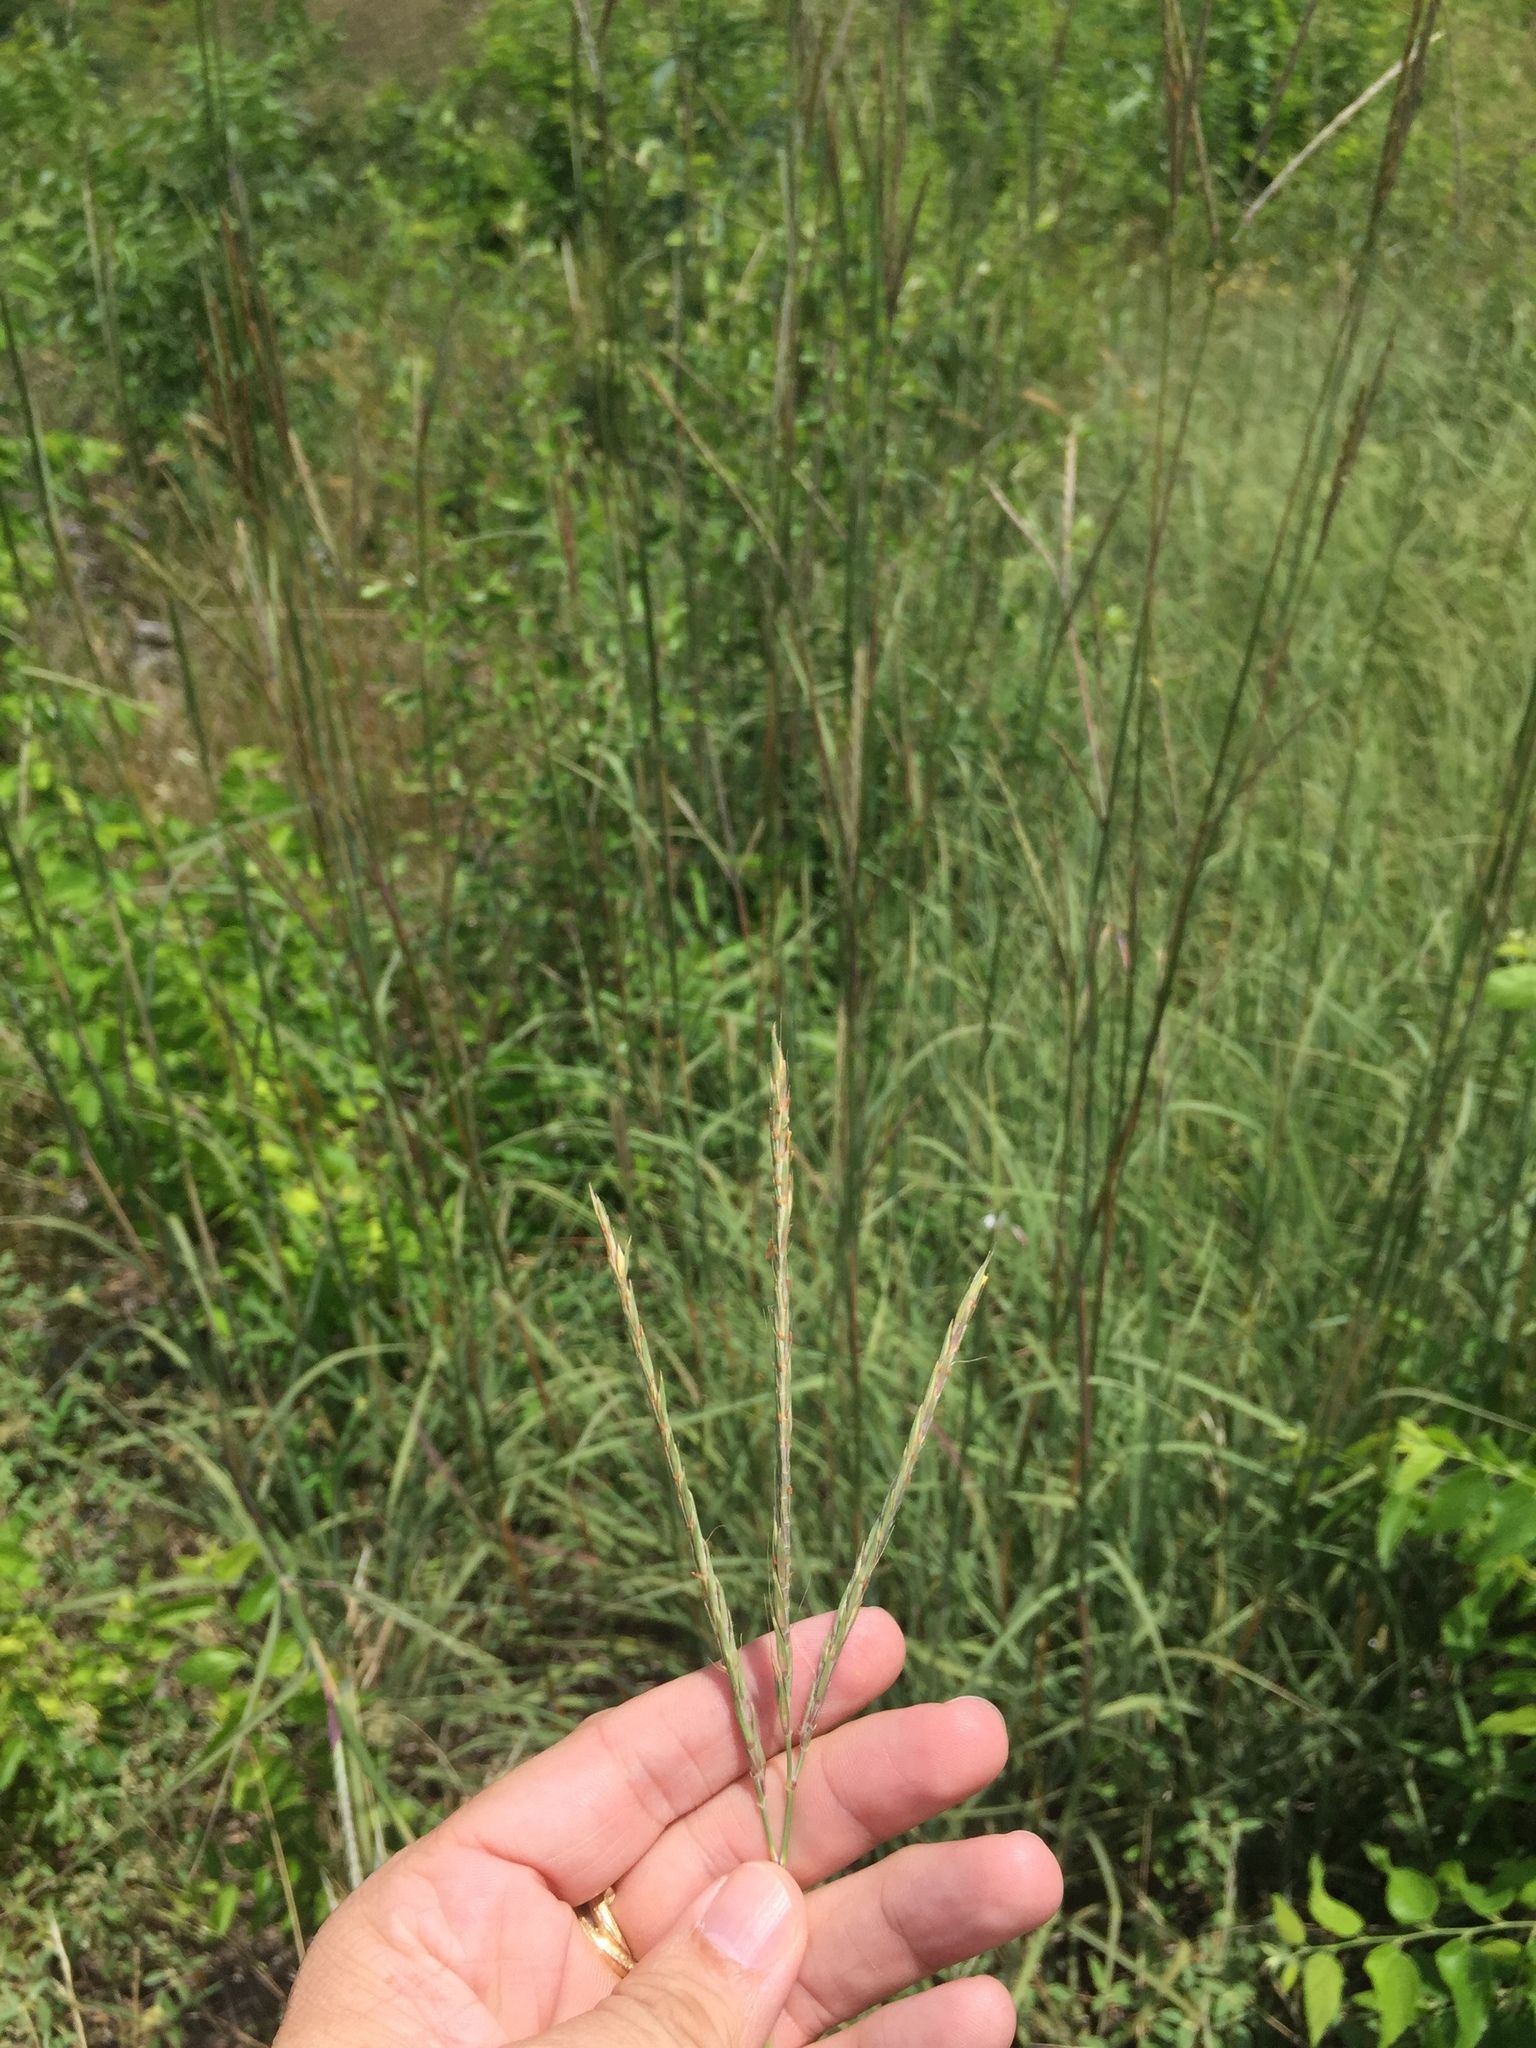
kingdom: Plantae
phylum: Tracheophyta
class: Liliopsida
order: Poales
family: Poaceae
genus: Andropogon
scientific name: Andropogon gerardi
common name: Big bluestem
